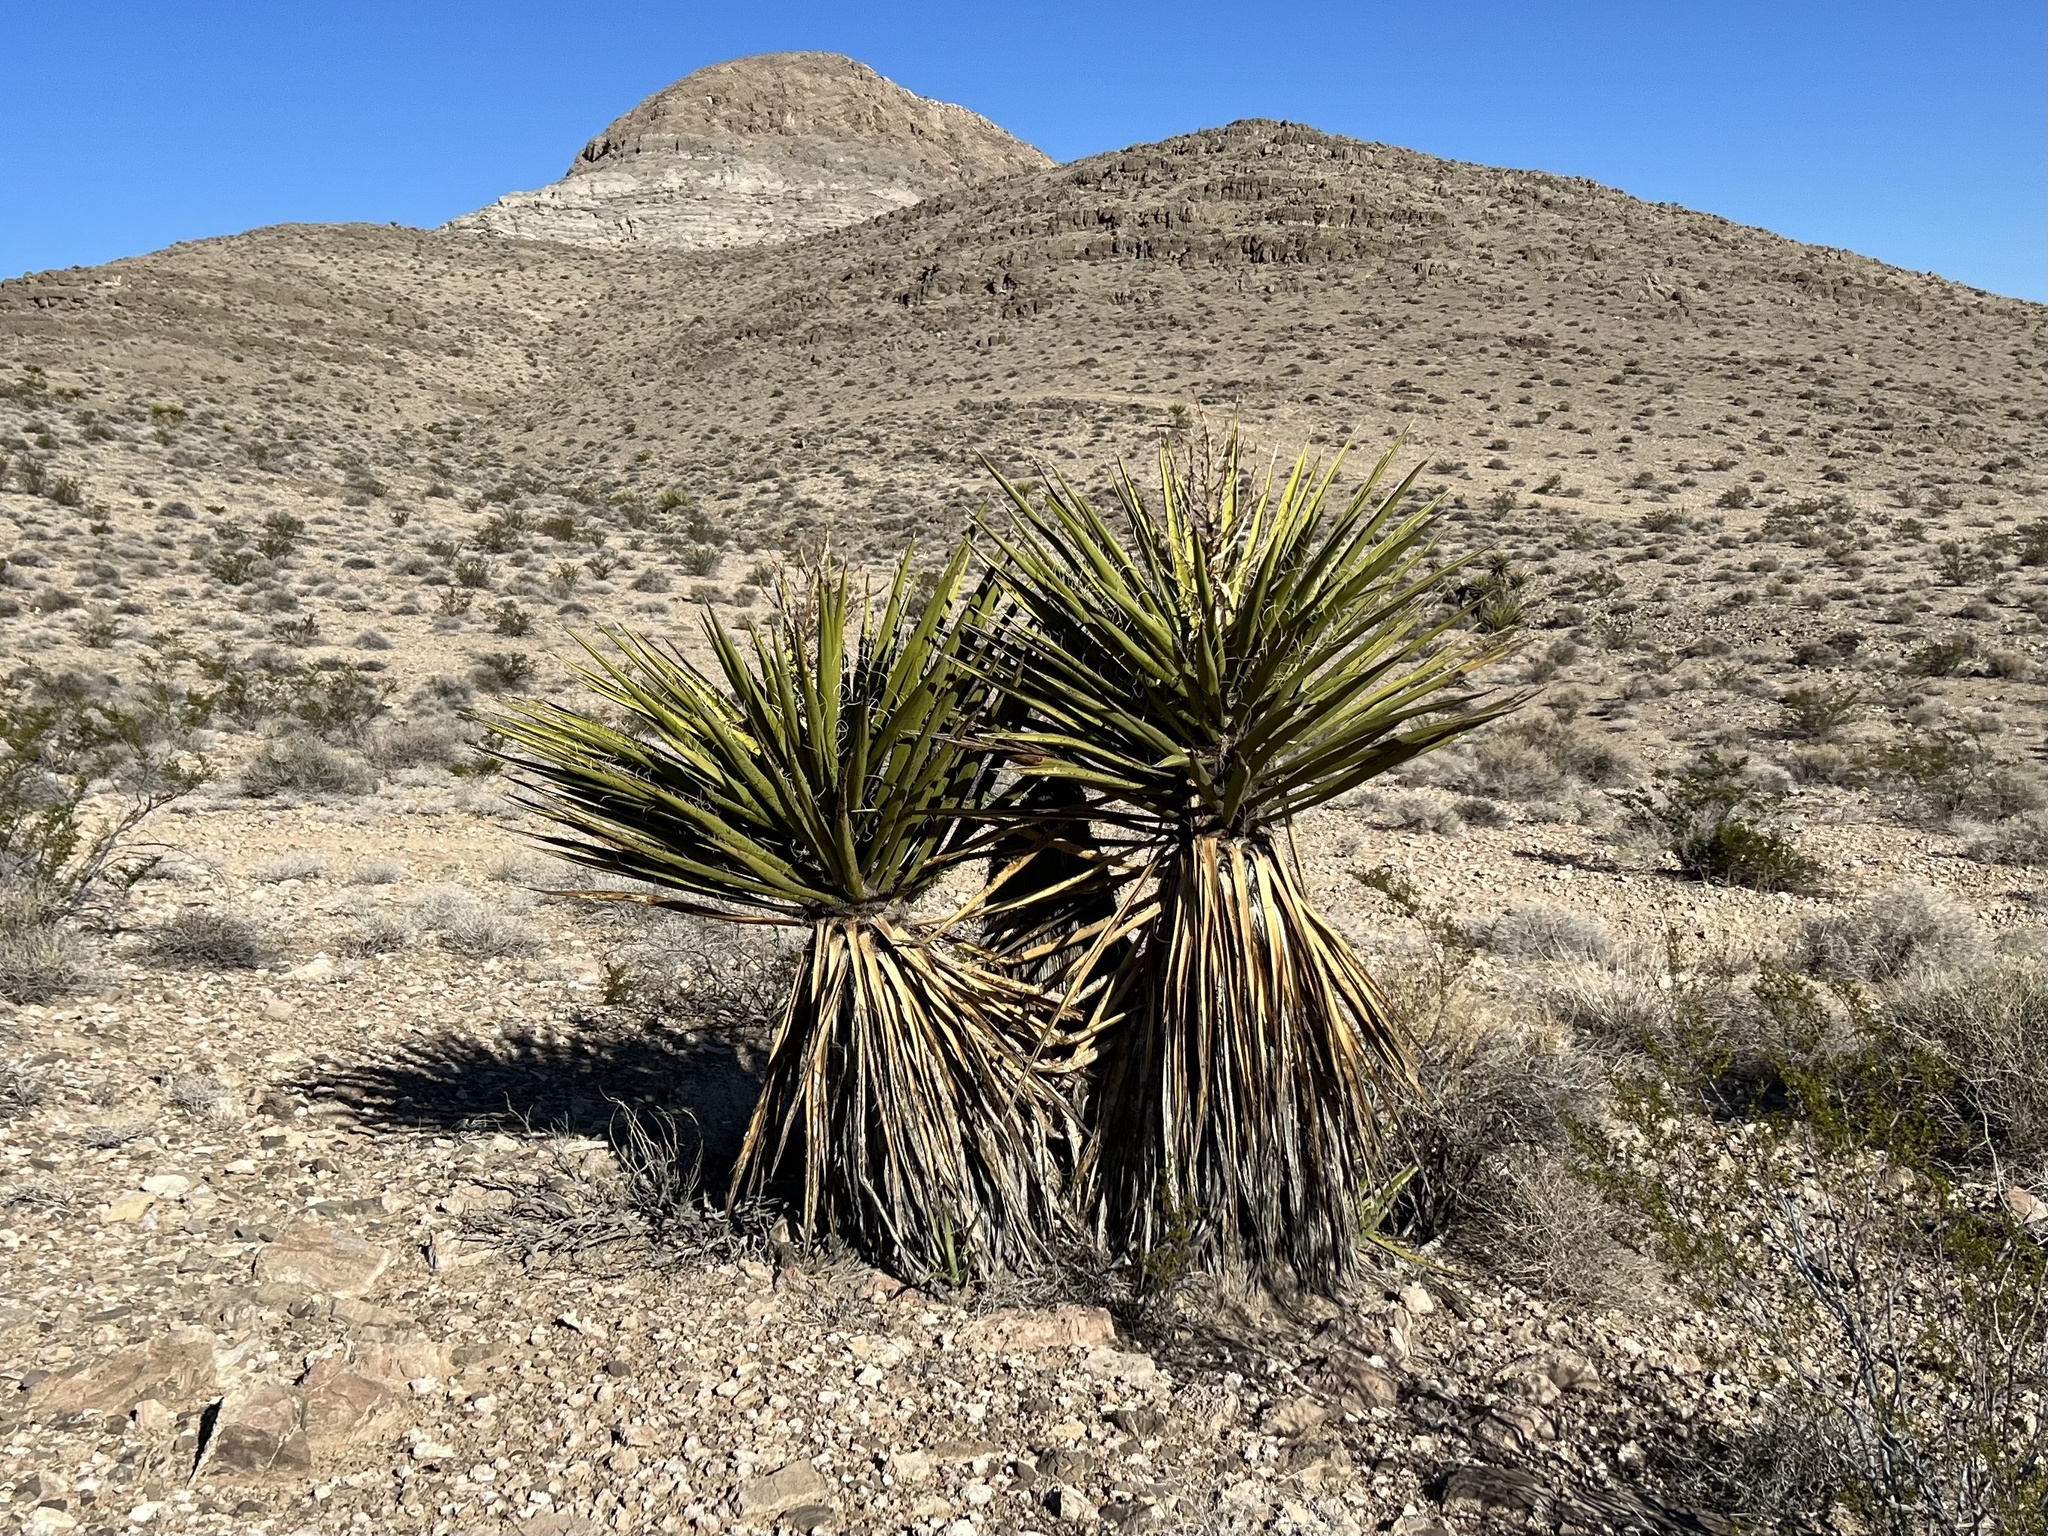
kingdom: Plantae
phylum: Tracheophyta
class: Liliopsida
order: Asparagales
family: Asparagaceae
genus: Yucca
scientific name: Yucca schidigera
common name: Mojave yucca
